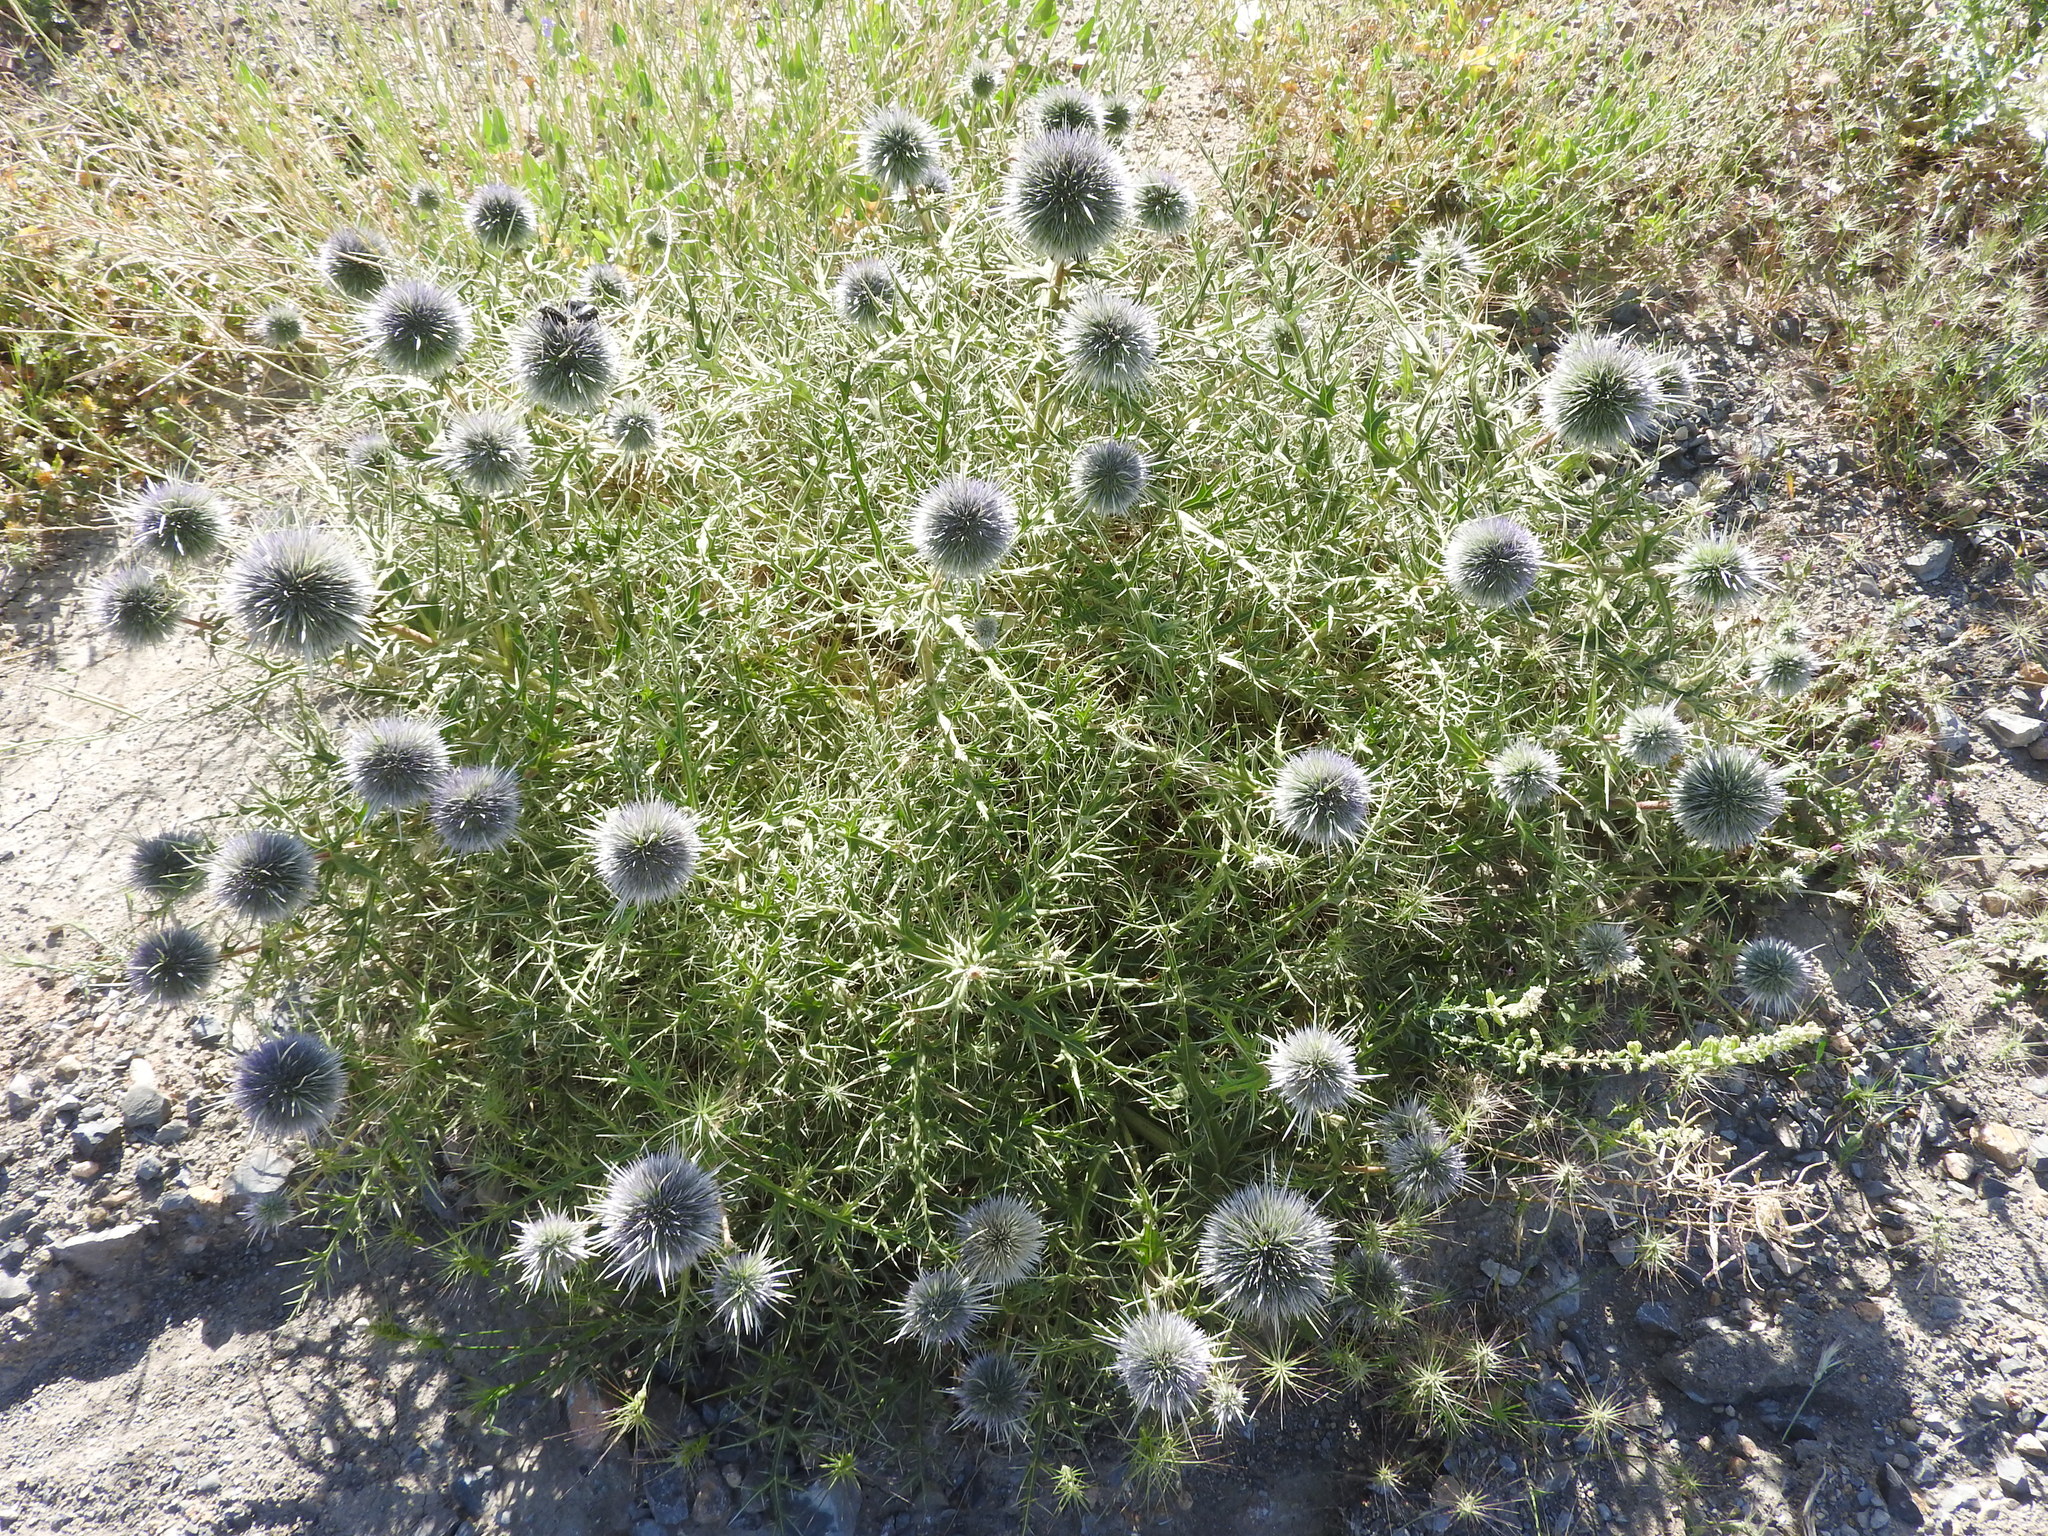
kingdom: Plantae
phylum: Tracheophyta
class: Magnoliopsida
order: Asterales
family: Asteraceae
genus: Echinops
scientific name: Echinops bovei
